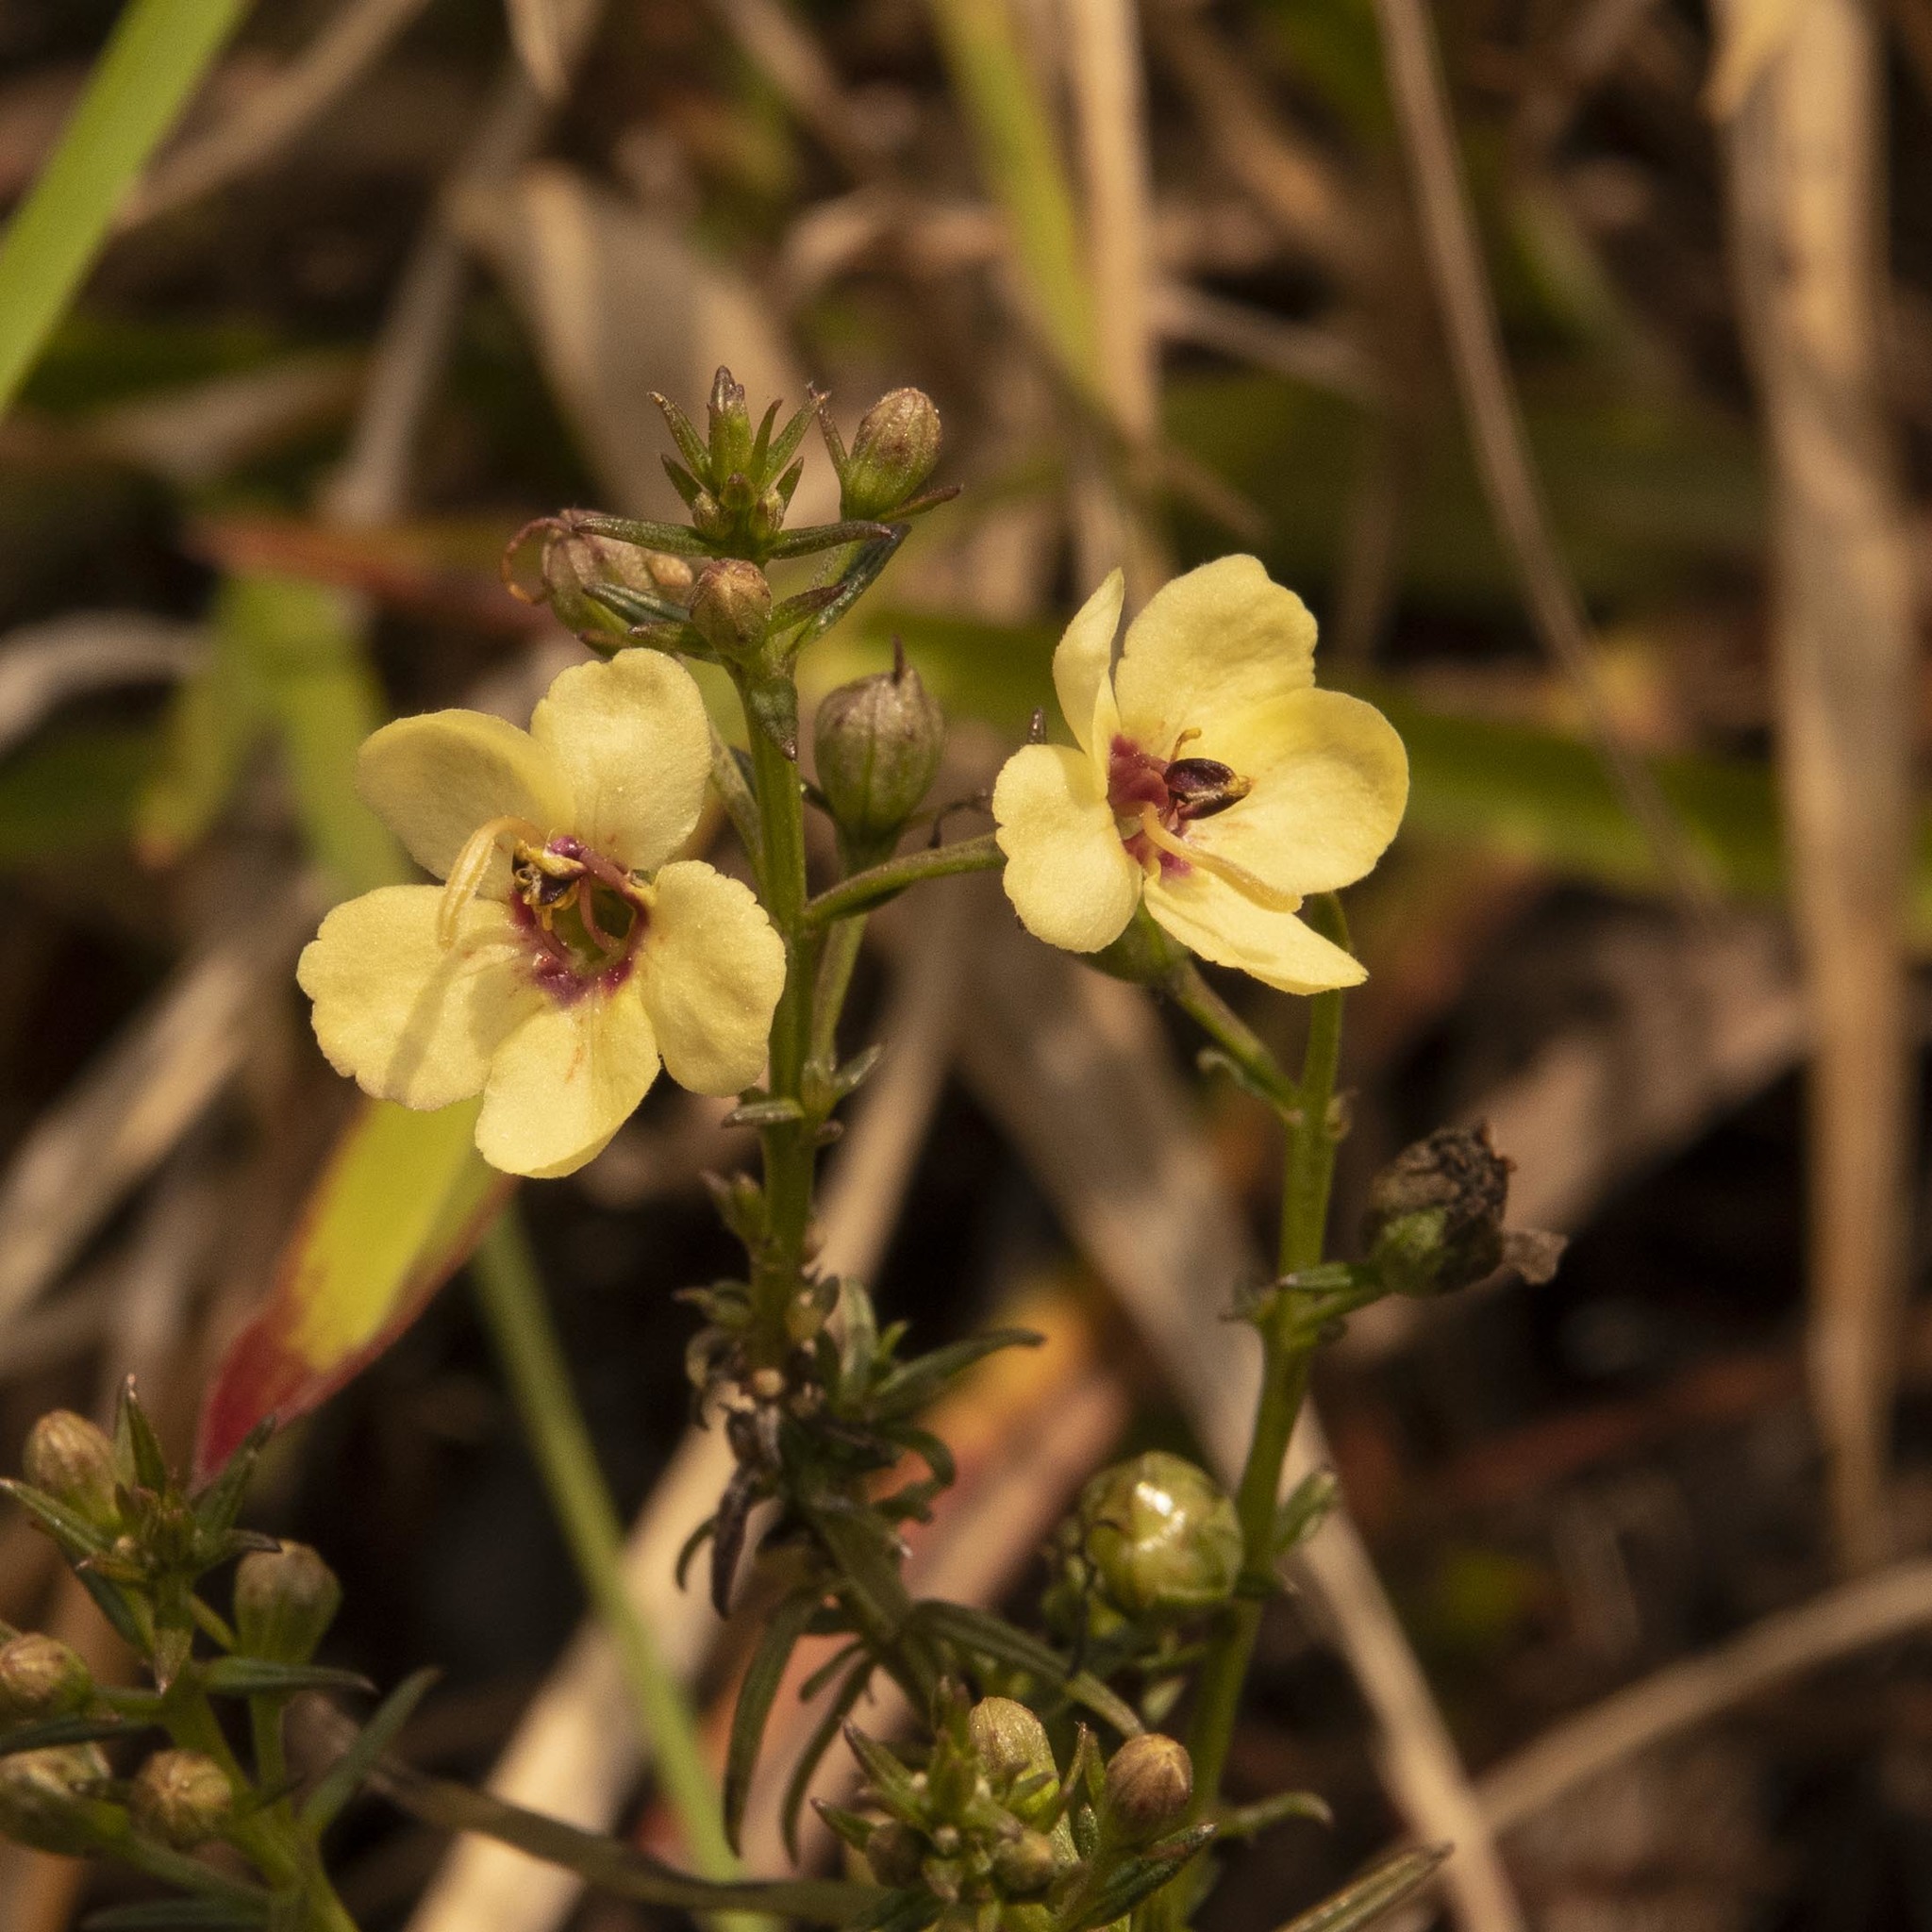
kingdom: Plantae
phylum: Tracheophyta
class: Magnoliopsida
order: Lamiales
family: Orobanchaceae
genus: Sopubia
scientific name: Sopubia trifida
